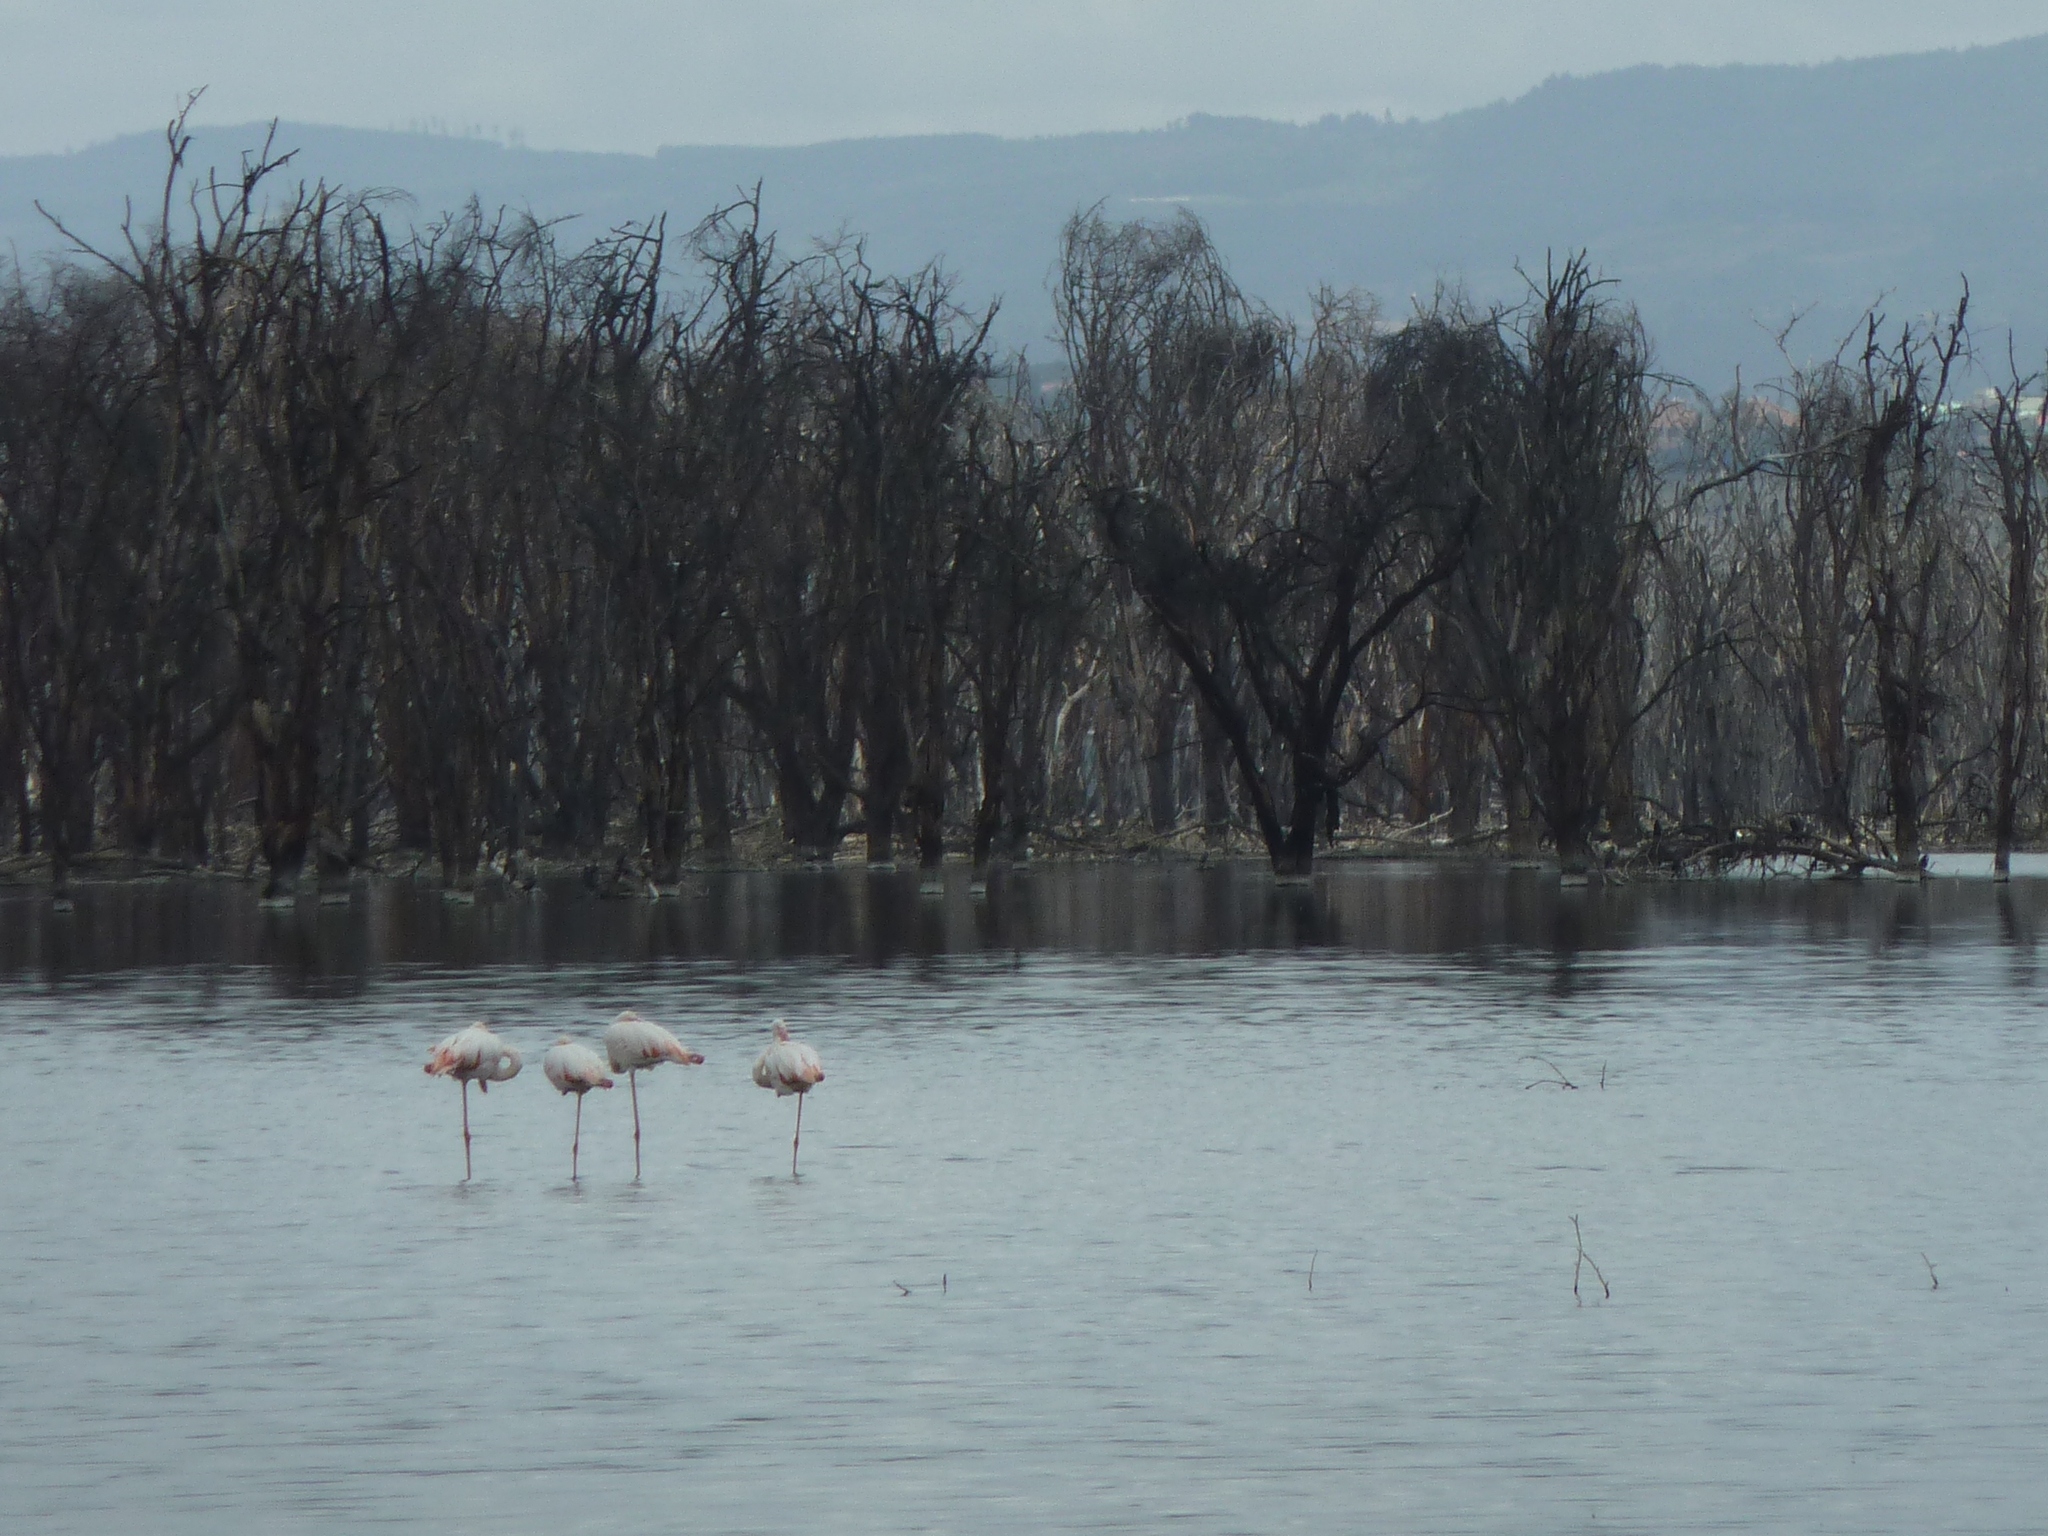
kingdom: Animalia
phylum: Chordata
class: Aves
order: Phoenicopteriformes
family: Phoenicopteridae
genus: Phoenicopterus
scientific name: Phoenicopterus roseus
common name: Greater flamingo
